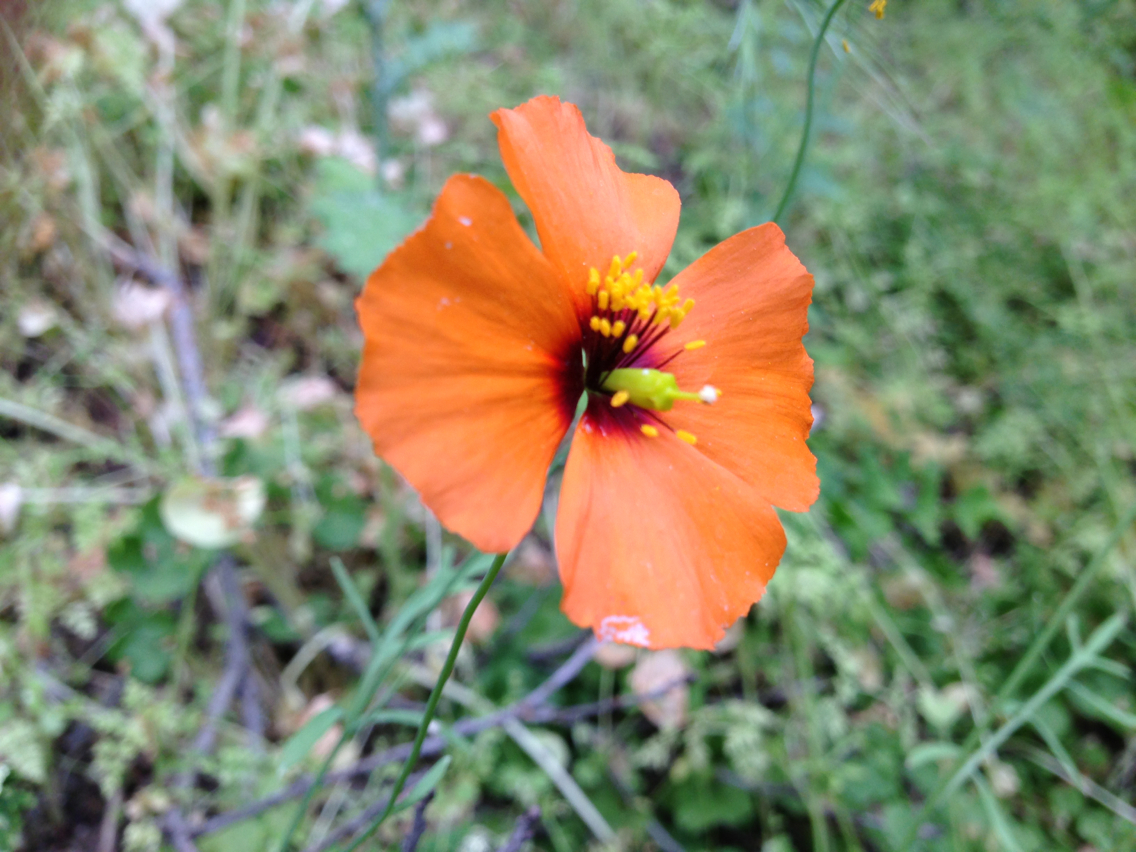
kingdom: Plantae
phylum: Tracheophyta
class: Magnoliopsida
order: Ranunculales
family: Papaveraceae
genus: Stylomecon
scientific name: Stylomecon heterophylla
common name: Flaming-poppy
